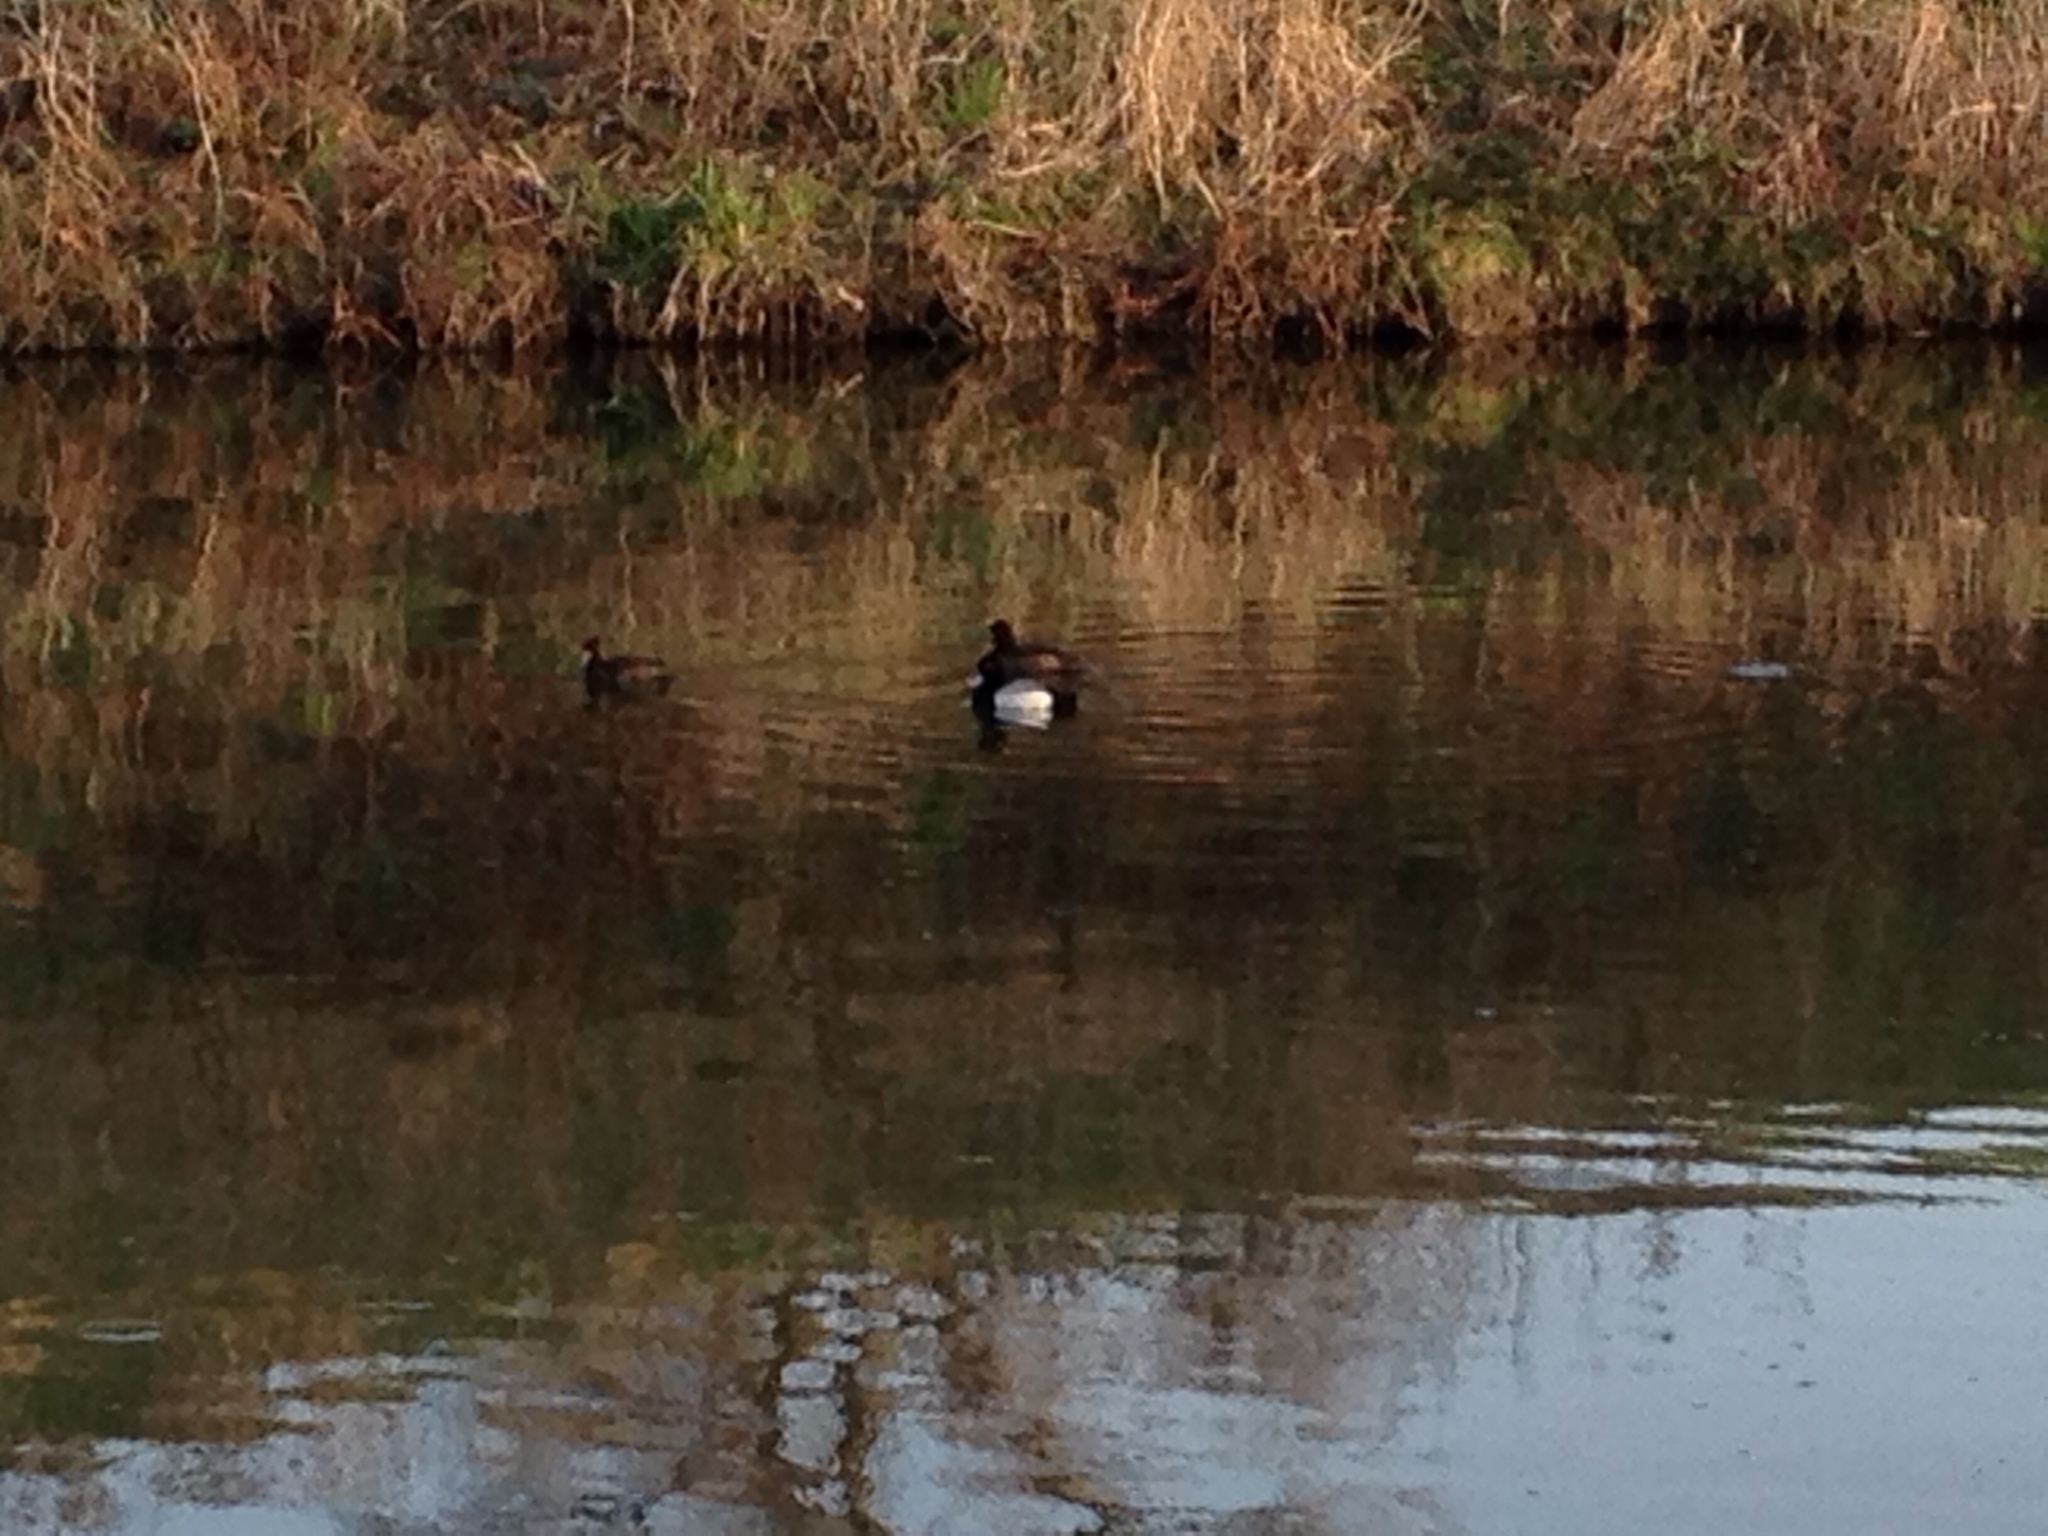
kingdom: Animalia
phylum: Chordata
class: Aves
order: Anseriformes
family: Anatidae
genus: Aythya
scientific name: Aythya affinis
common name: Lesser scaup
